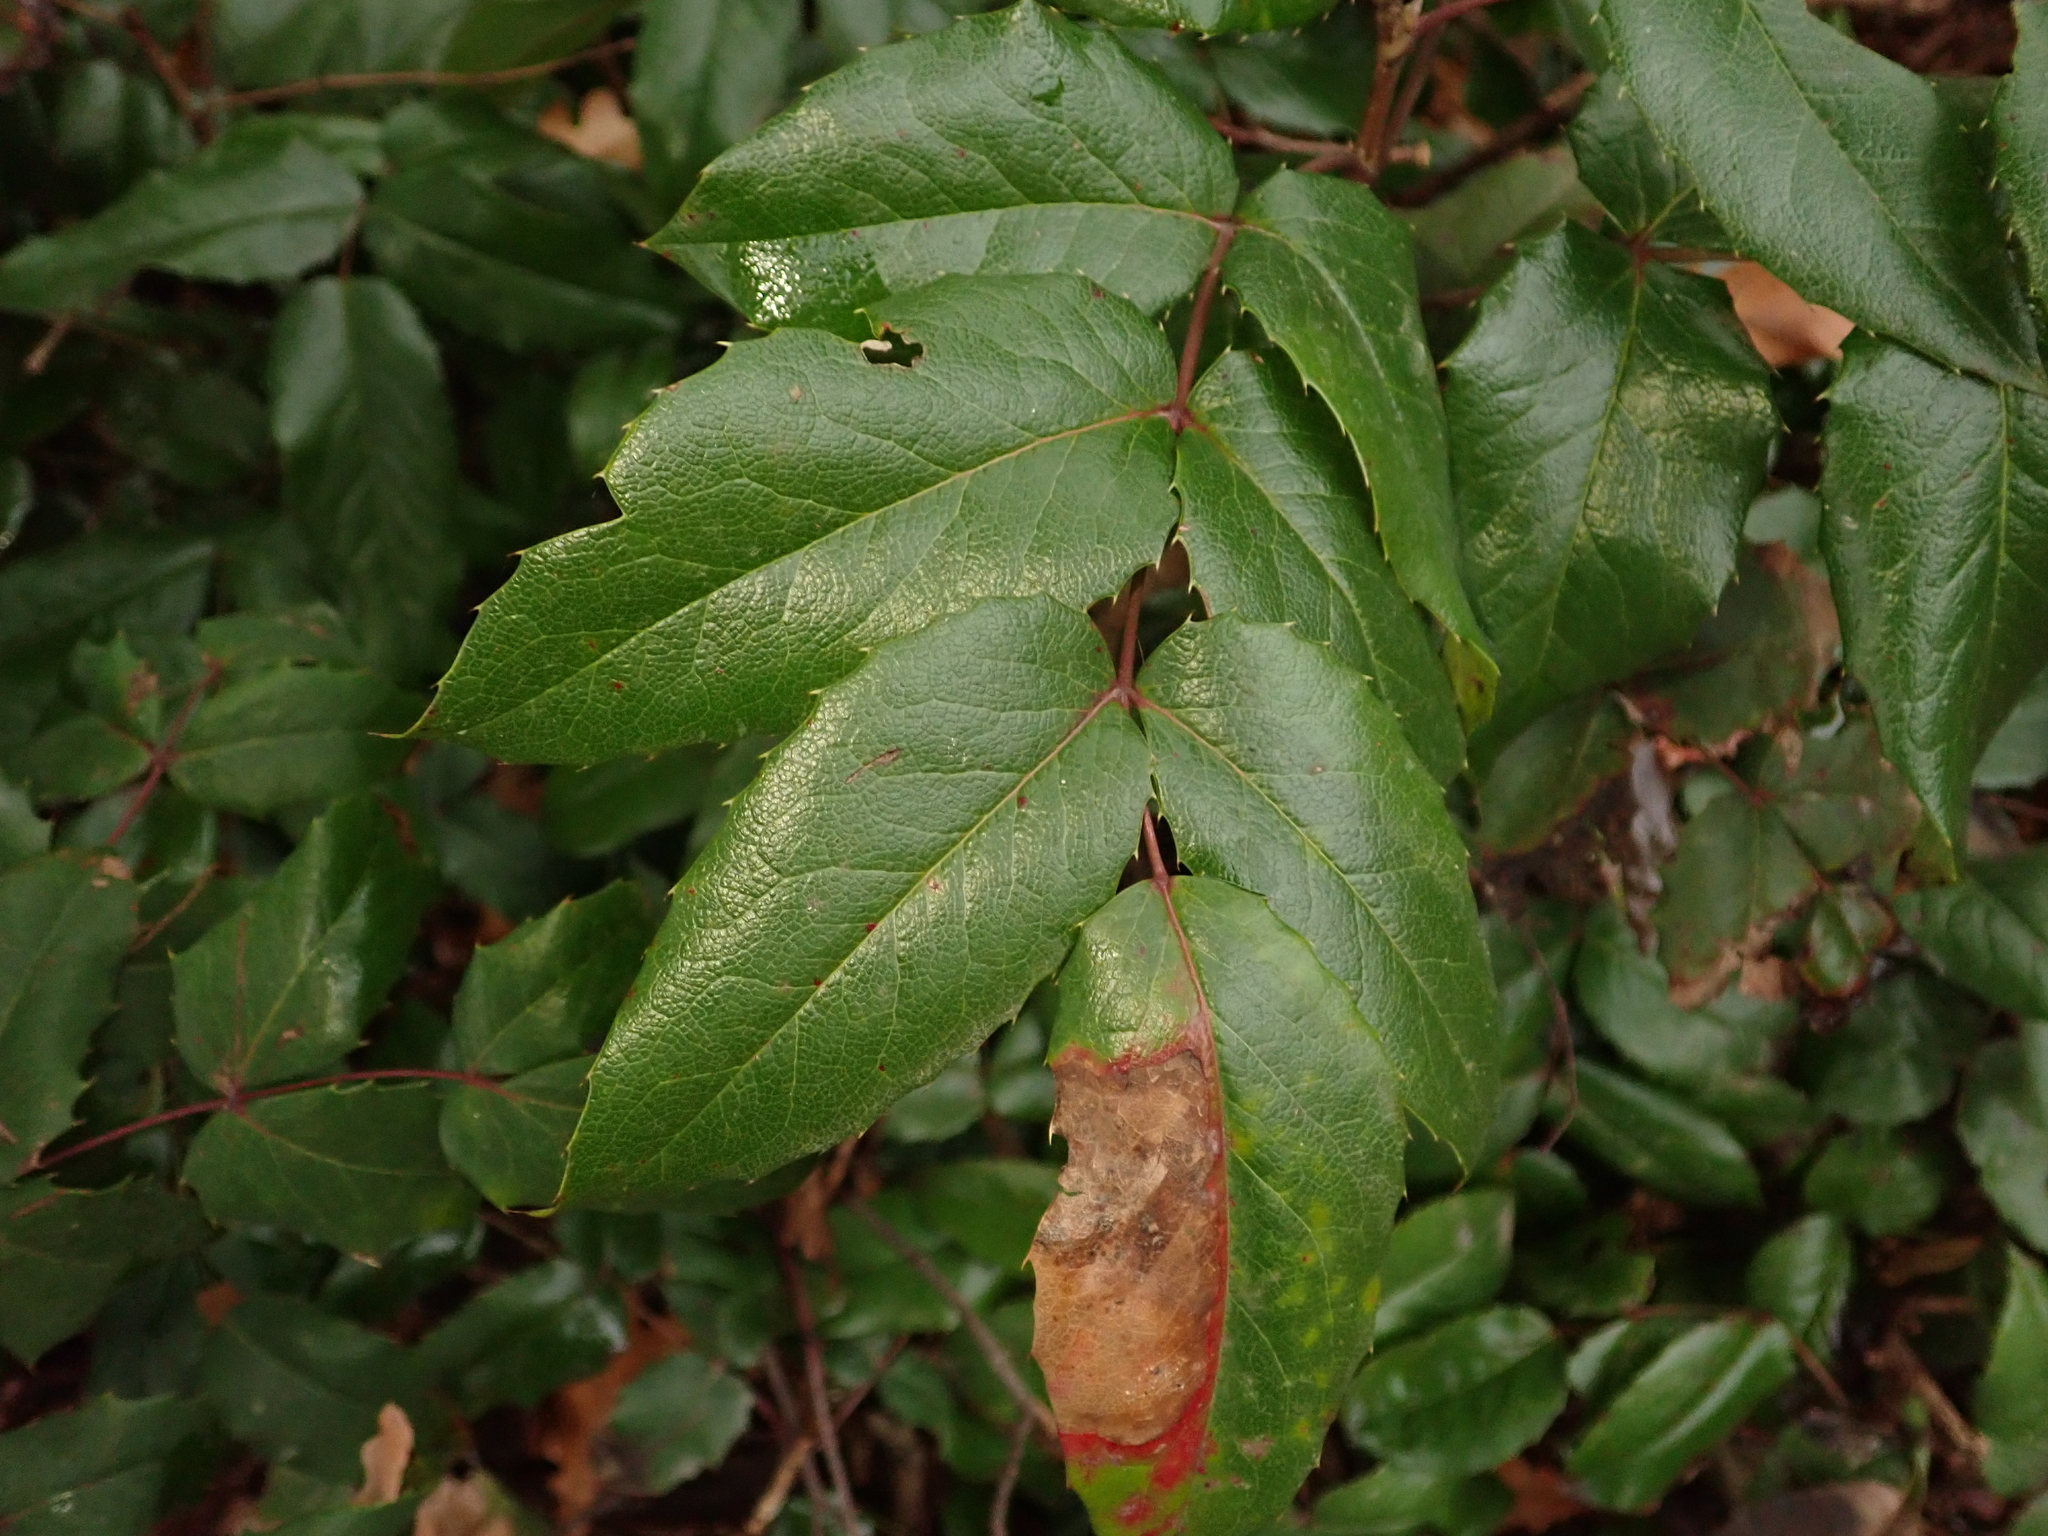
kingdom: Plantae
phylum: Tracheophyta
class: Magnoliopsida
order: Ranunculales
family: Berberidaceae
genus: Mahonia
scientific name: Mahonia aquifolium
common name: Oregon-grape
